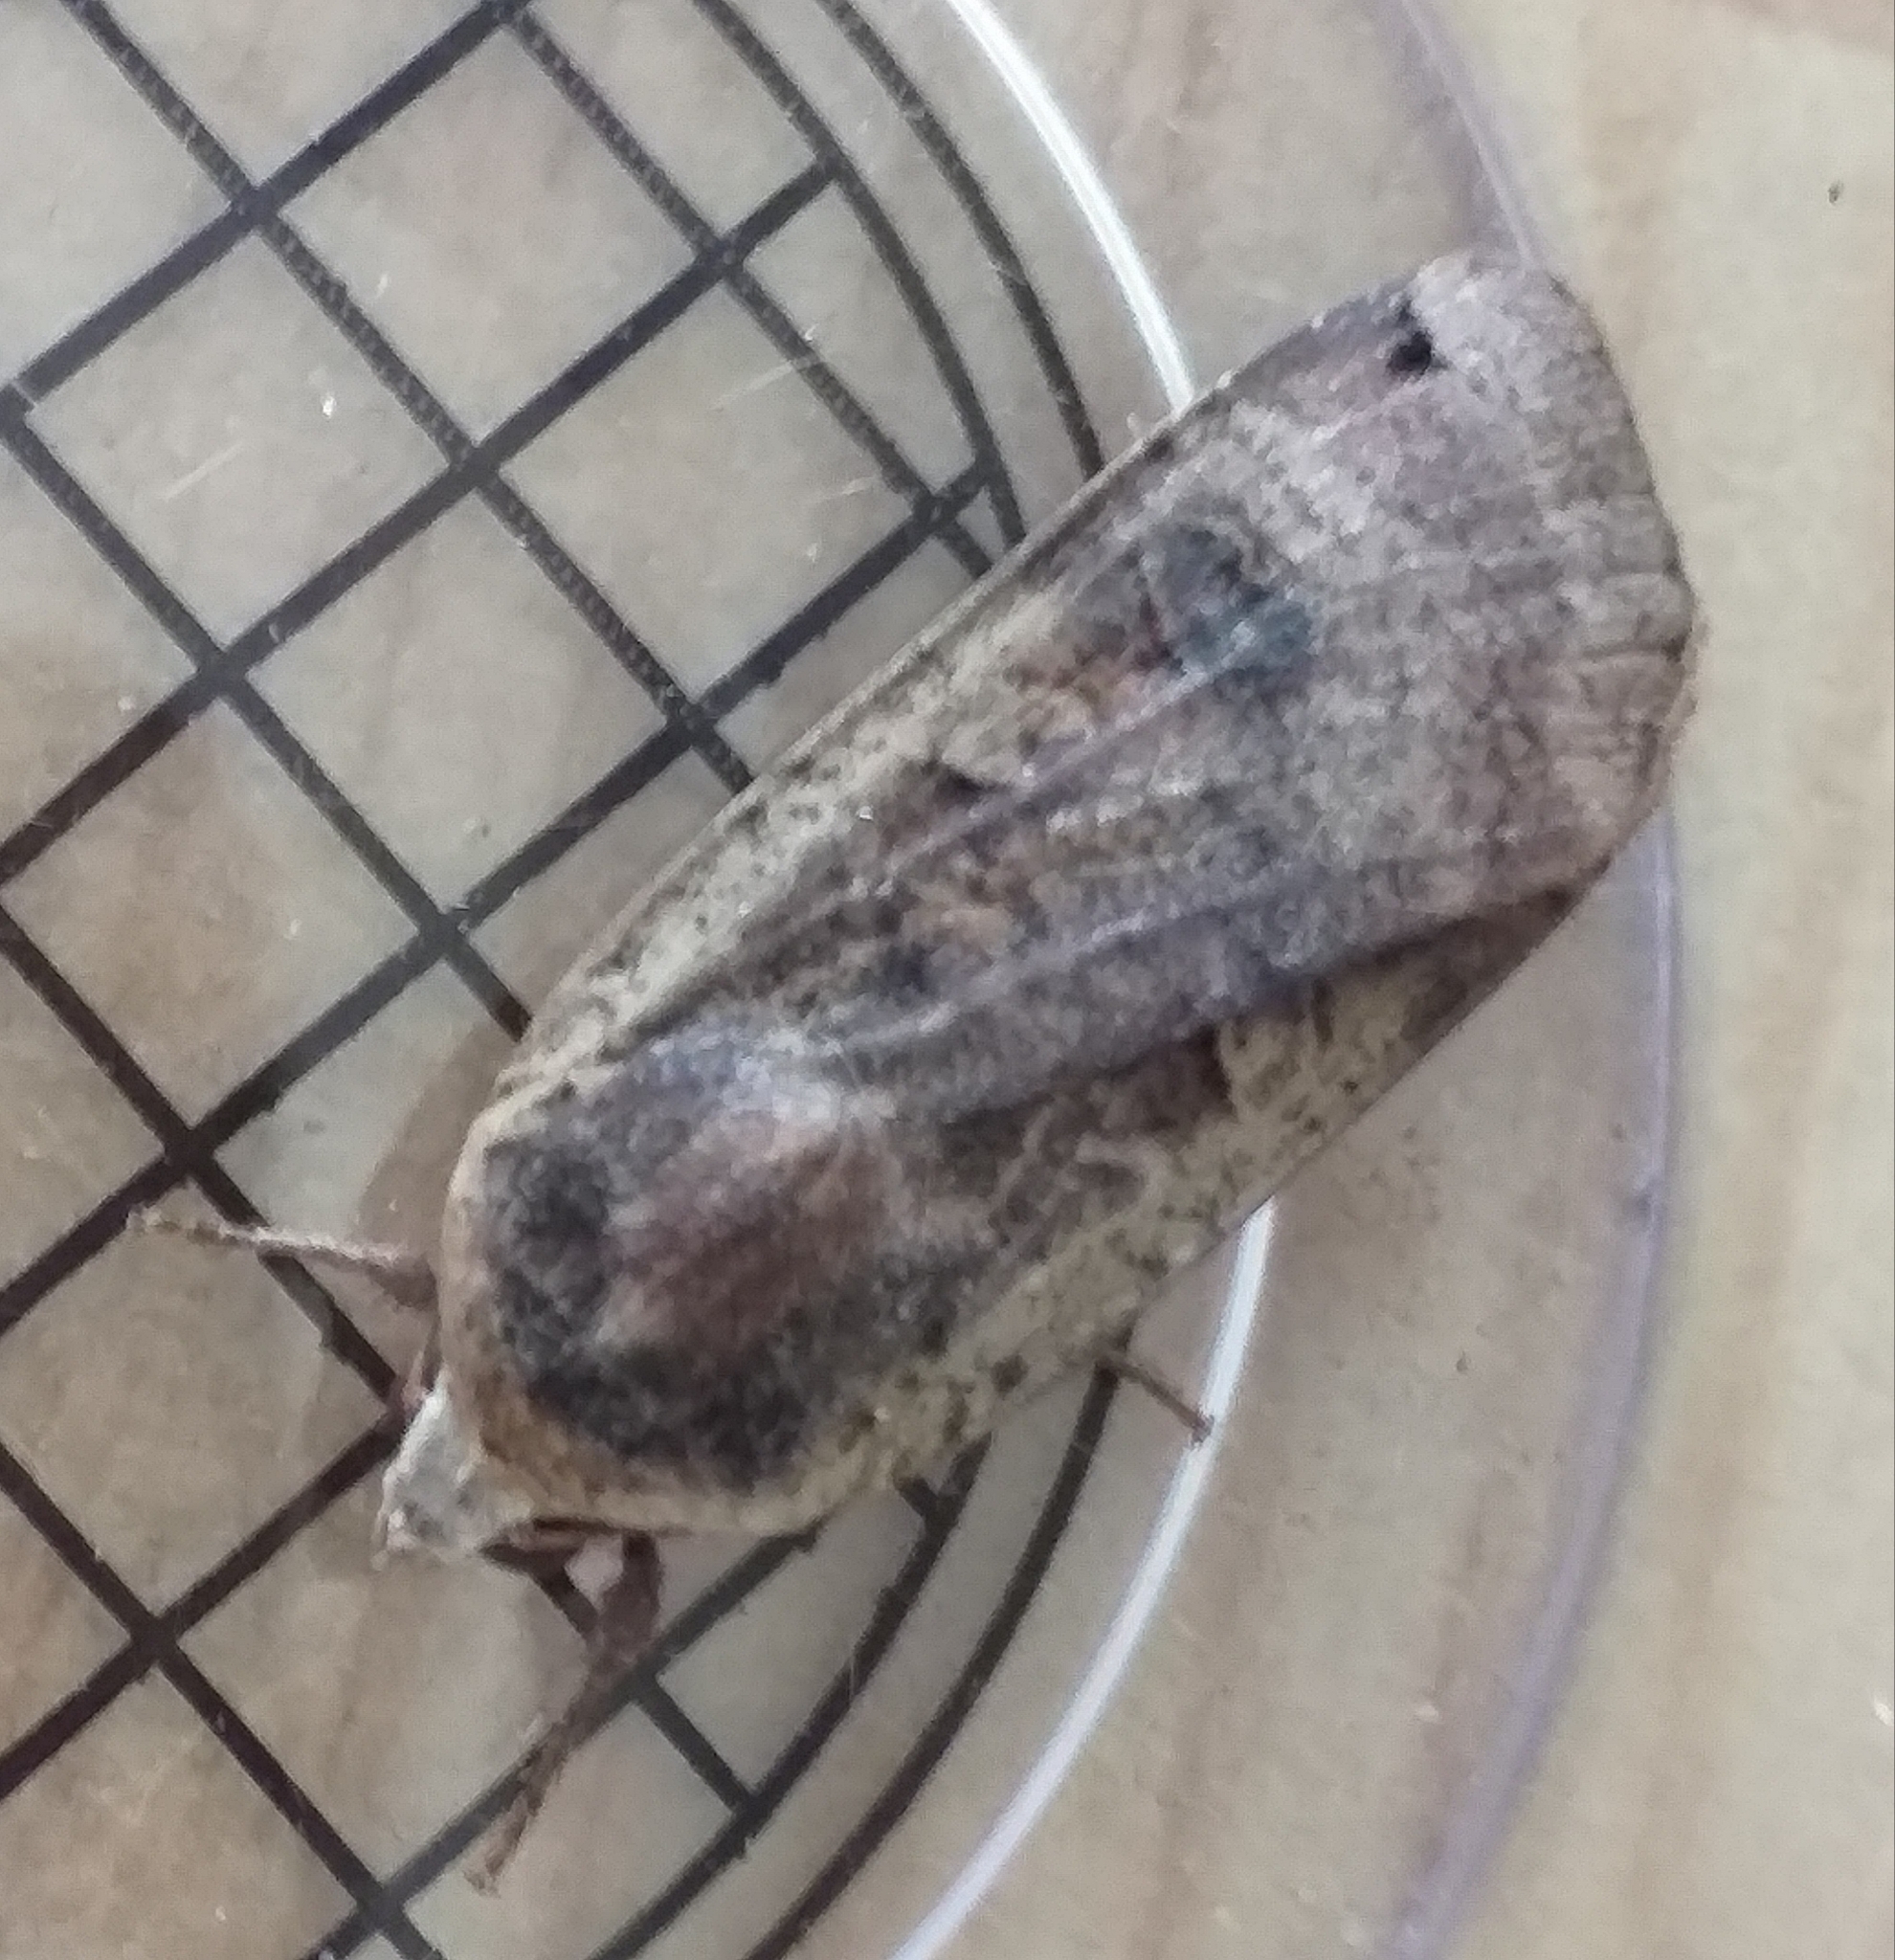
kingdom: Animalia
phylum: Arthropoda
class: Insecta
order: Lepidoptera
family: Noctuidae
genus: Noctua
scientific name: Noctua pronuba
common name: Large yellow underwing
